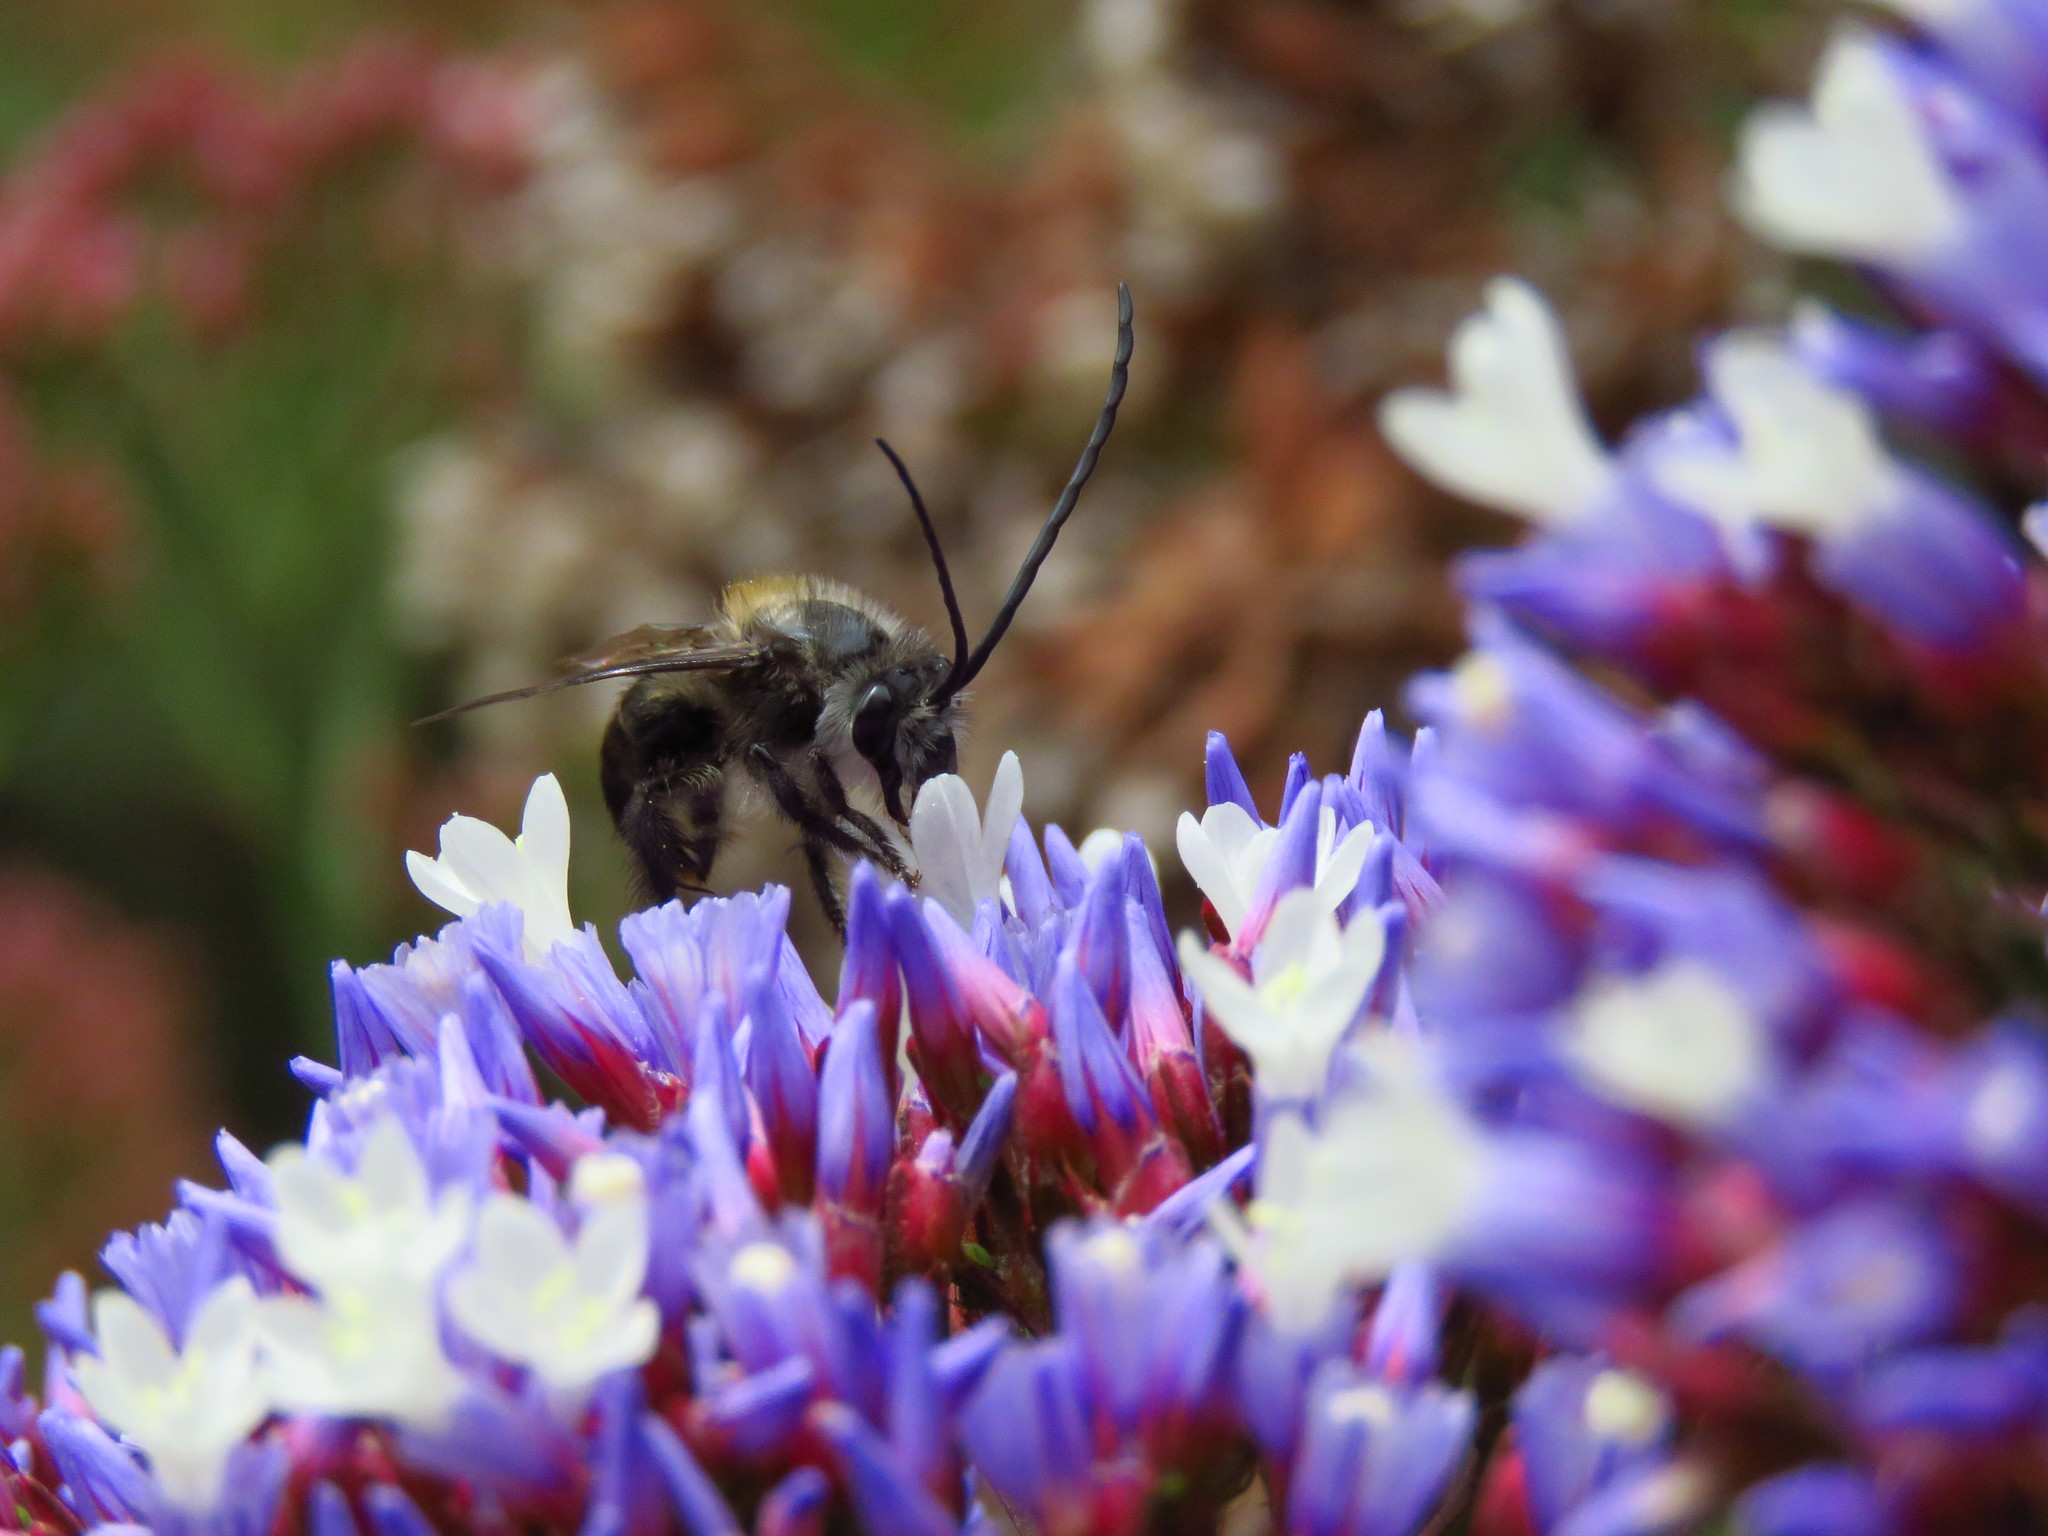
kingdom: Animalia
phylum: Arthropoda
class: Insecta
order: Hymenoptera
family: Apidae
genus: Thygater
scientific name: Thygater aethiops
